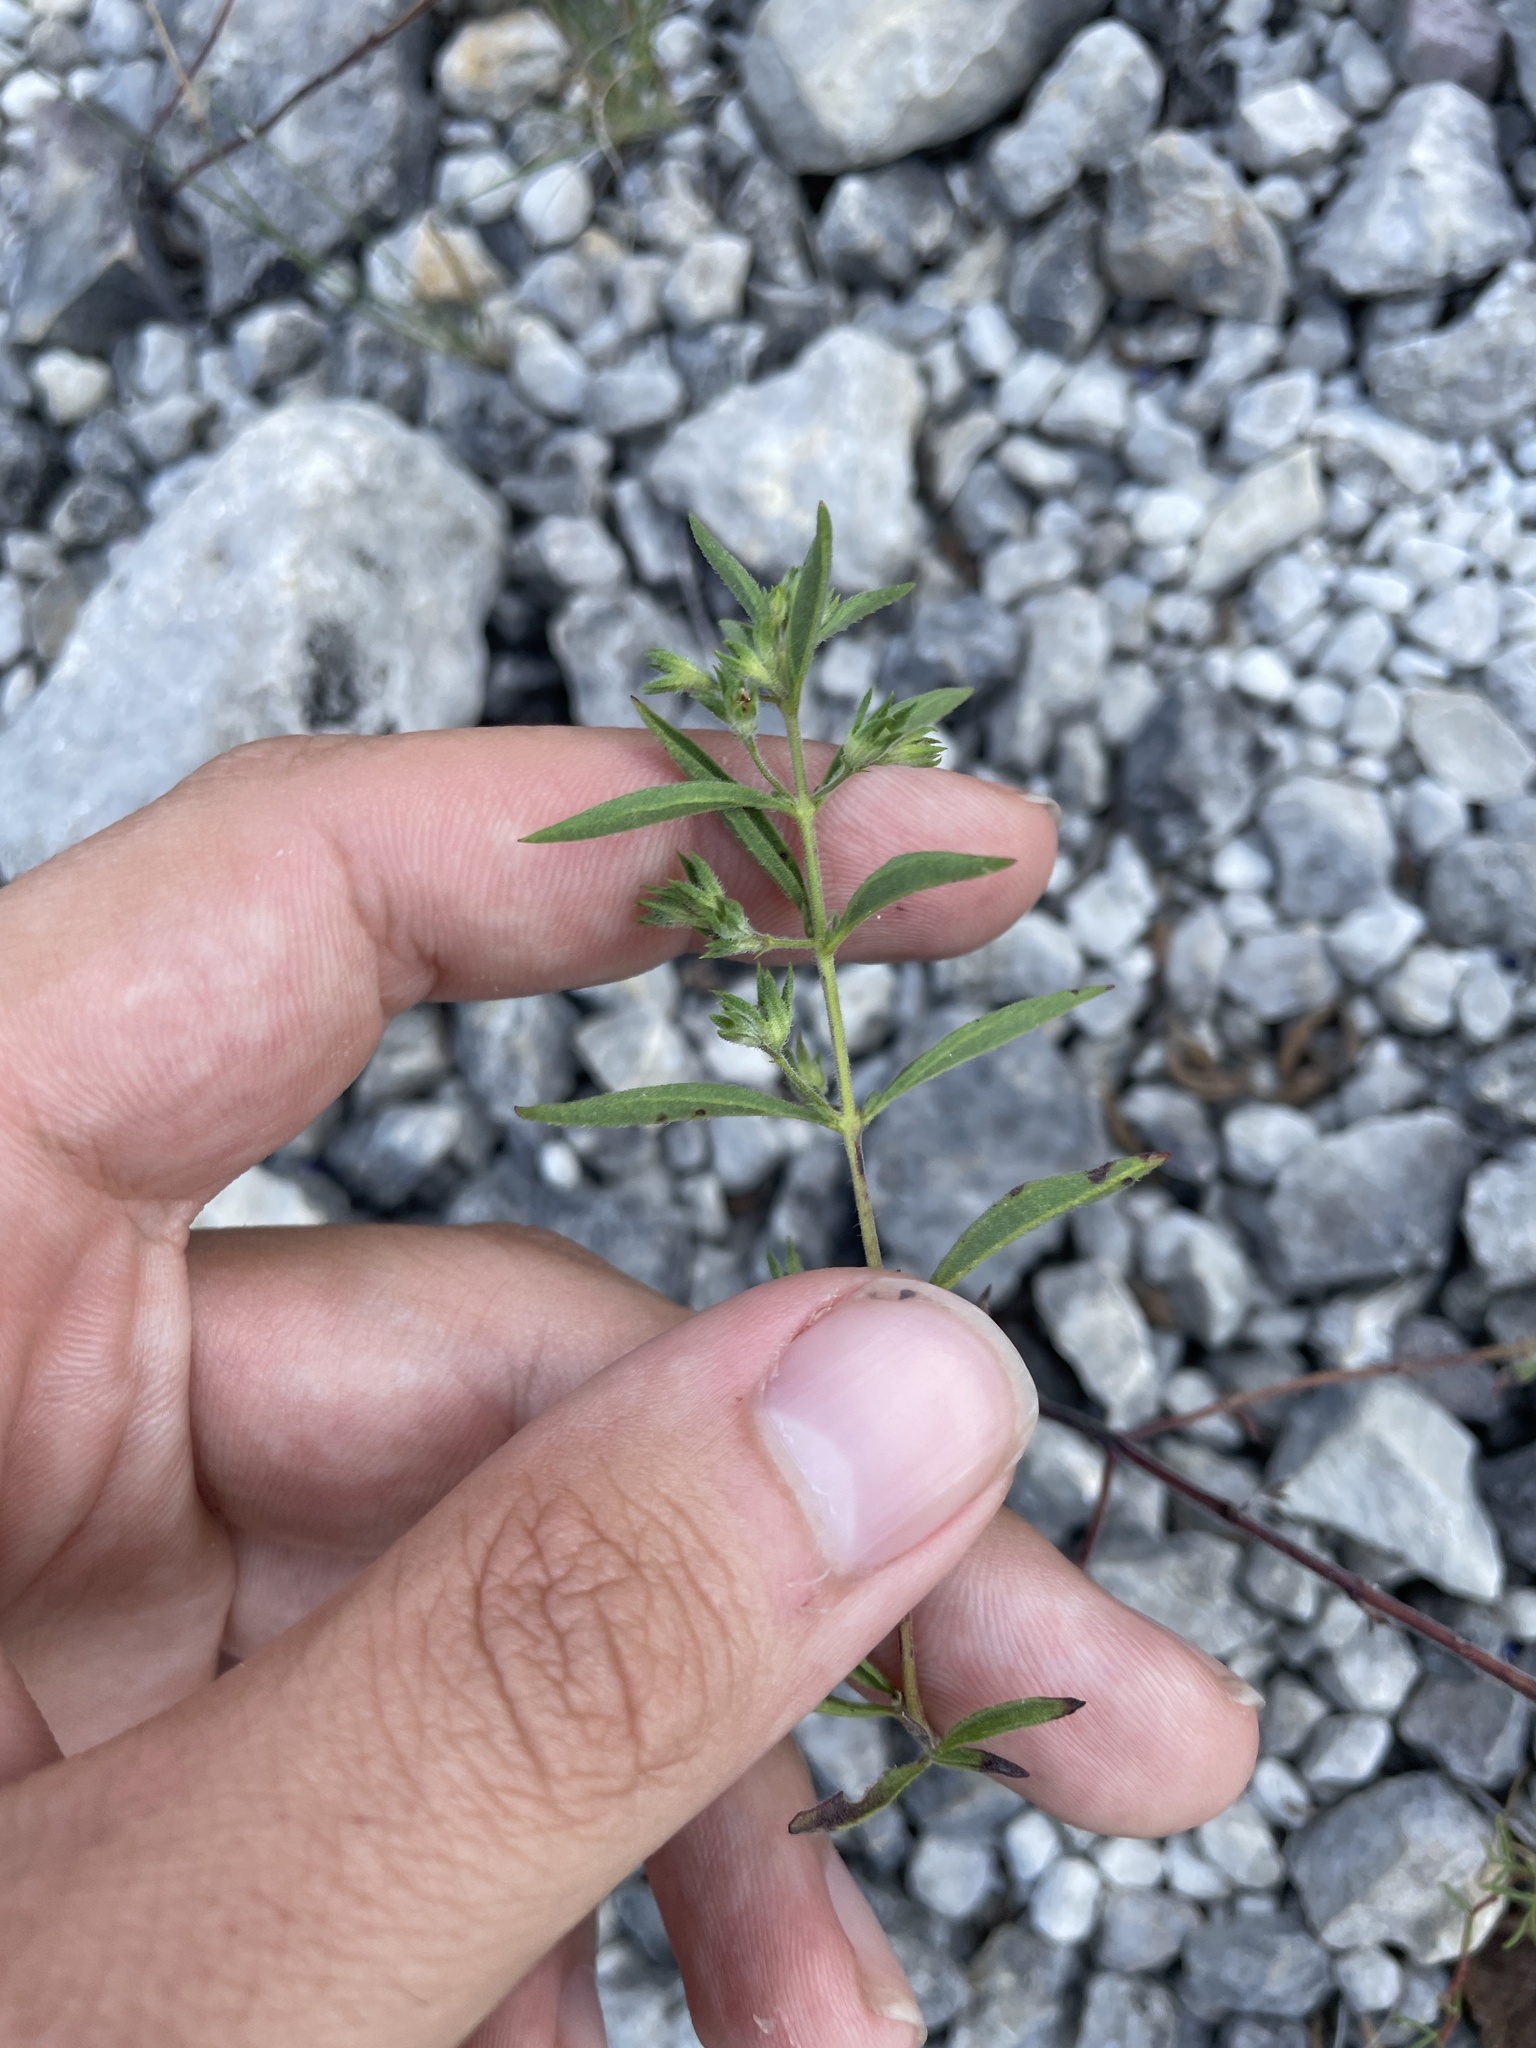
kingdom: Plantae
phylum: Tracheophyta
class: Magnoliopsida
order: Lamiales
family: Lamiaceae
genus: Trichostema
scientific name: Trichostema brachiatum
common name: False pennyroyal
